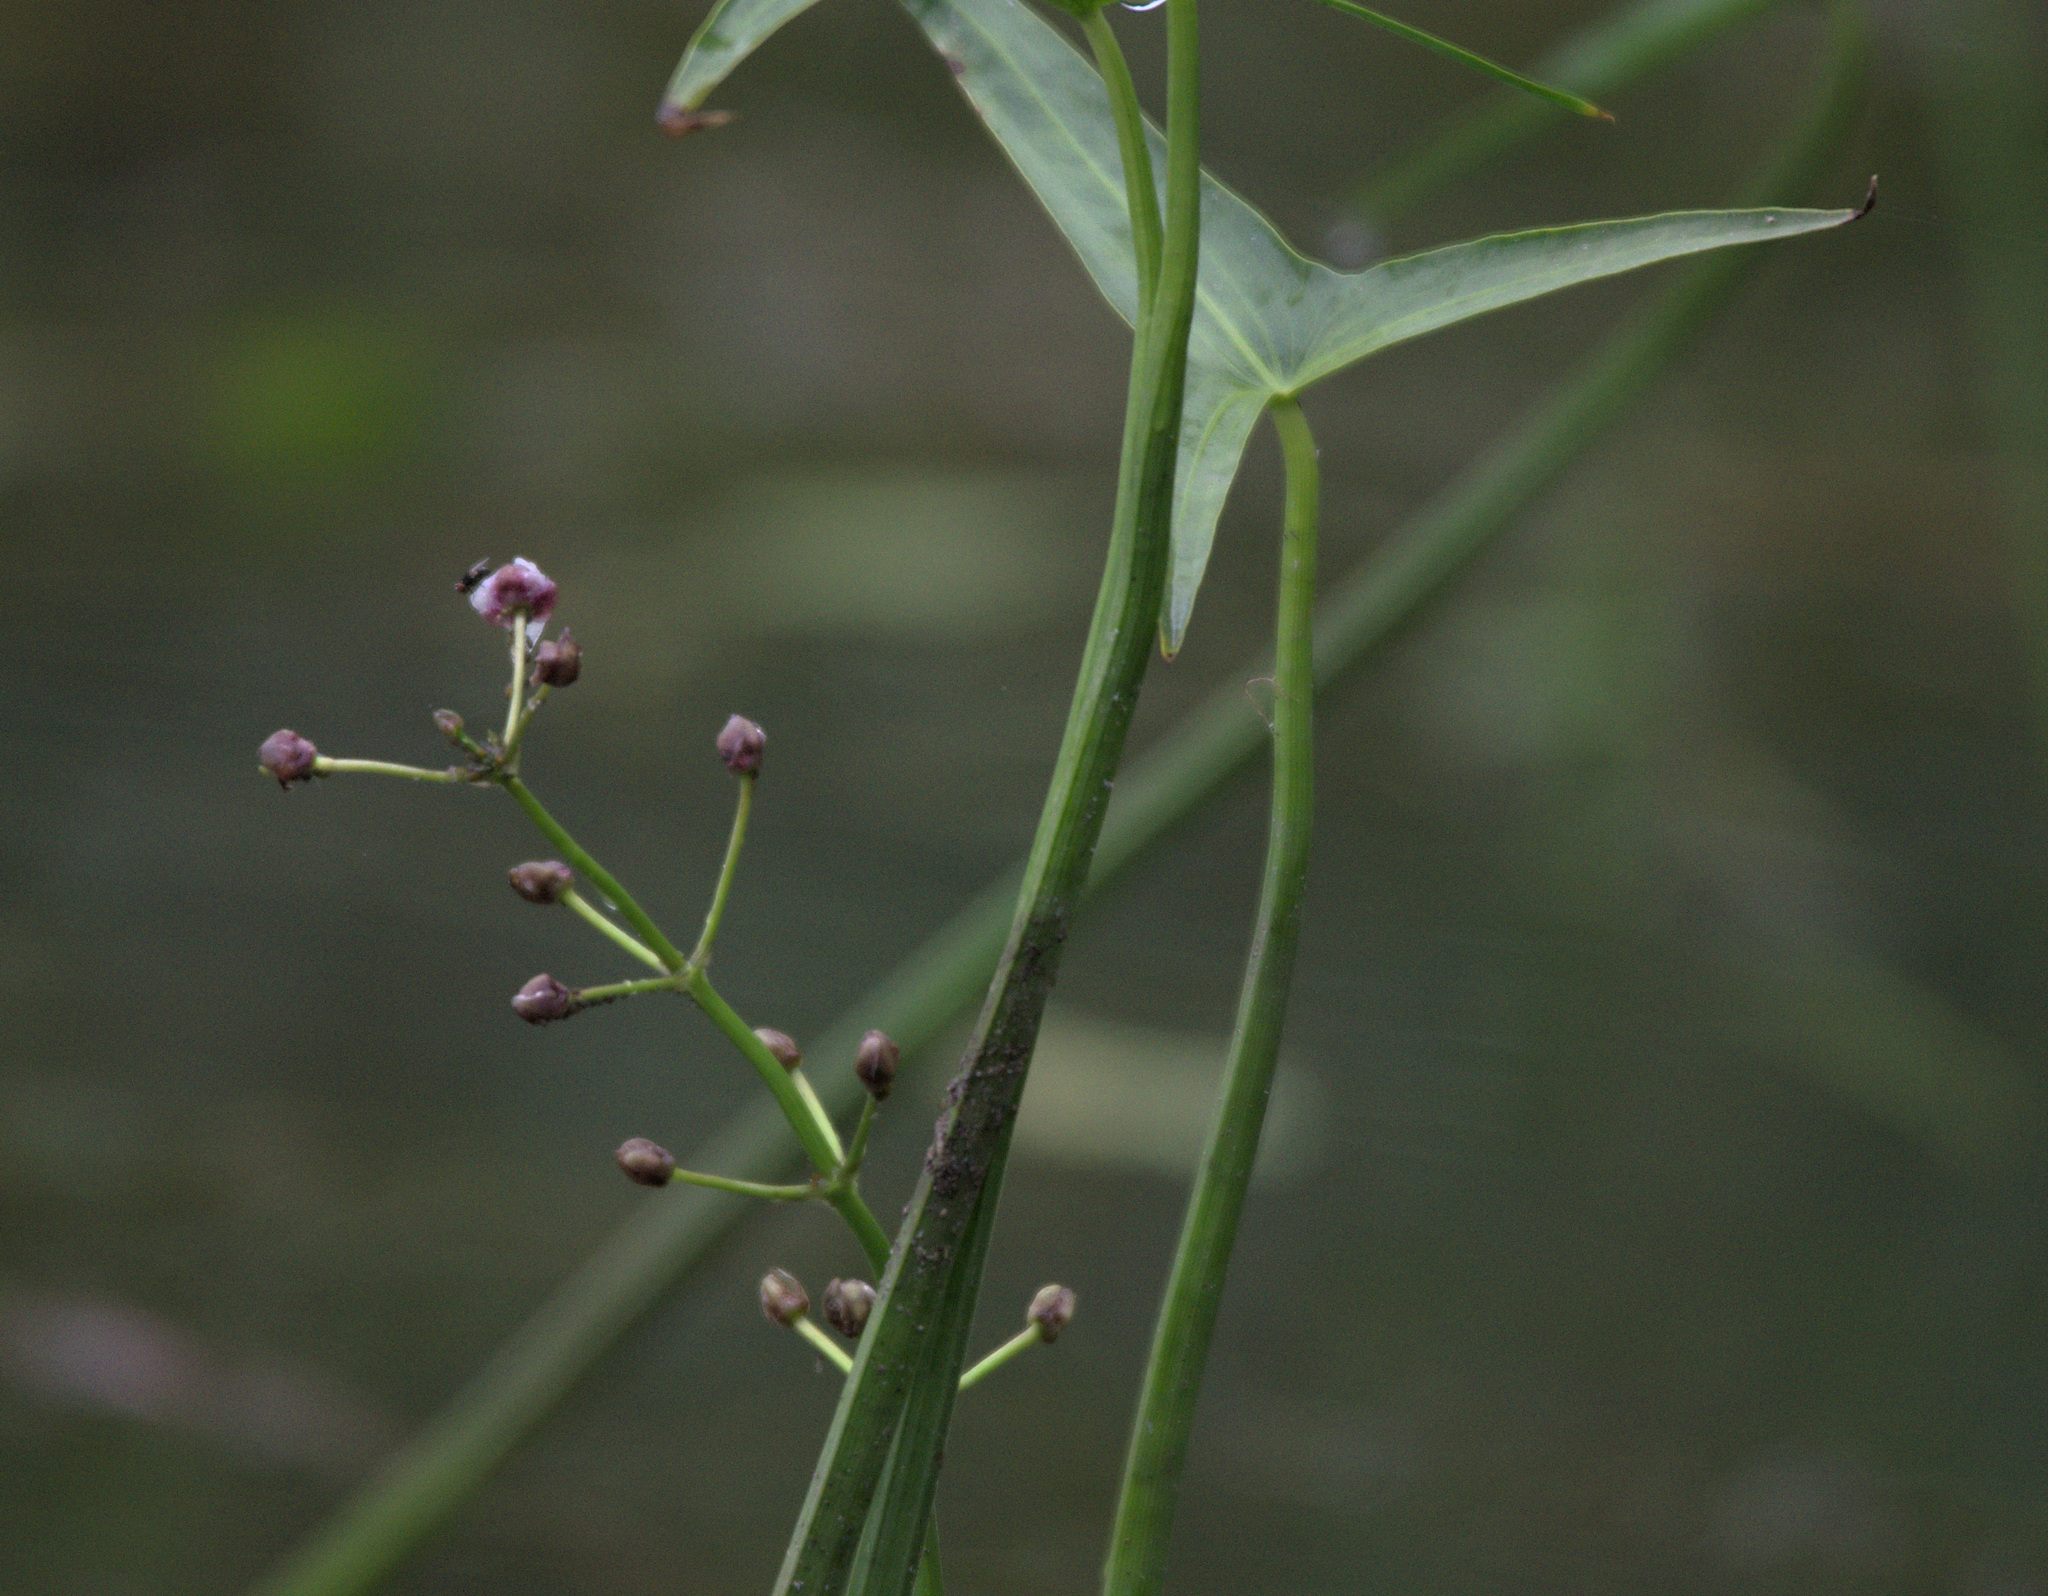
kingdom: Plantae
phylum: Tracheophyta
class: Liliopsida
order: Alismatales
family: Alismataceae
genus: Sagittaria
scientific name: Sagittaria sagittifolia
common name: Arrowhead
